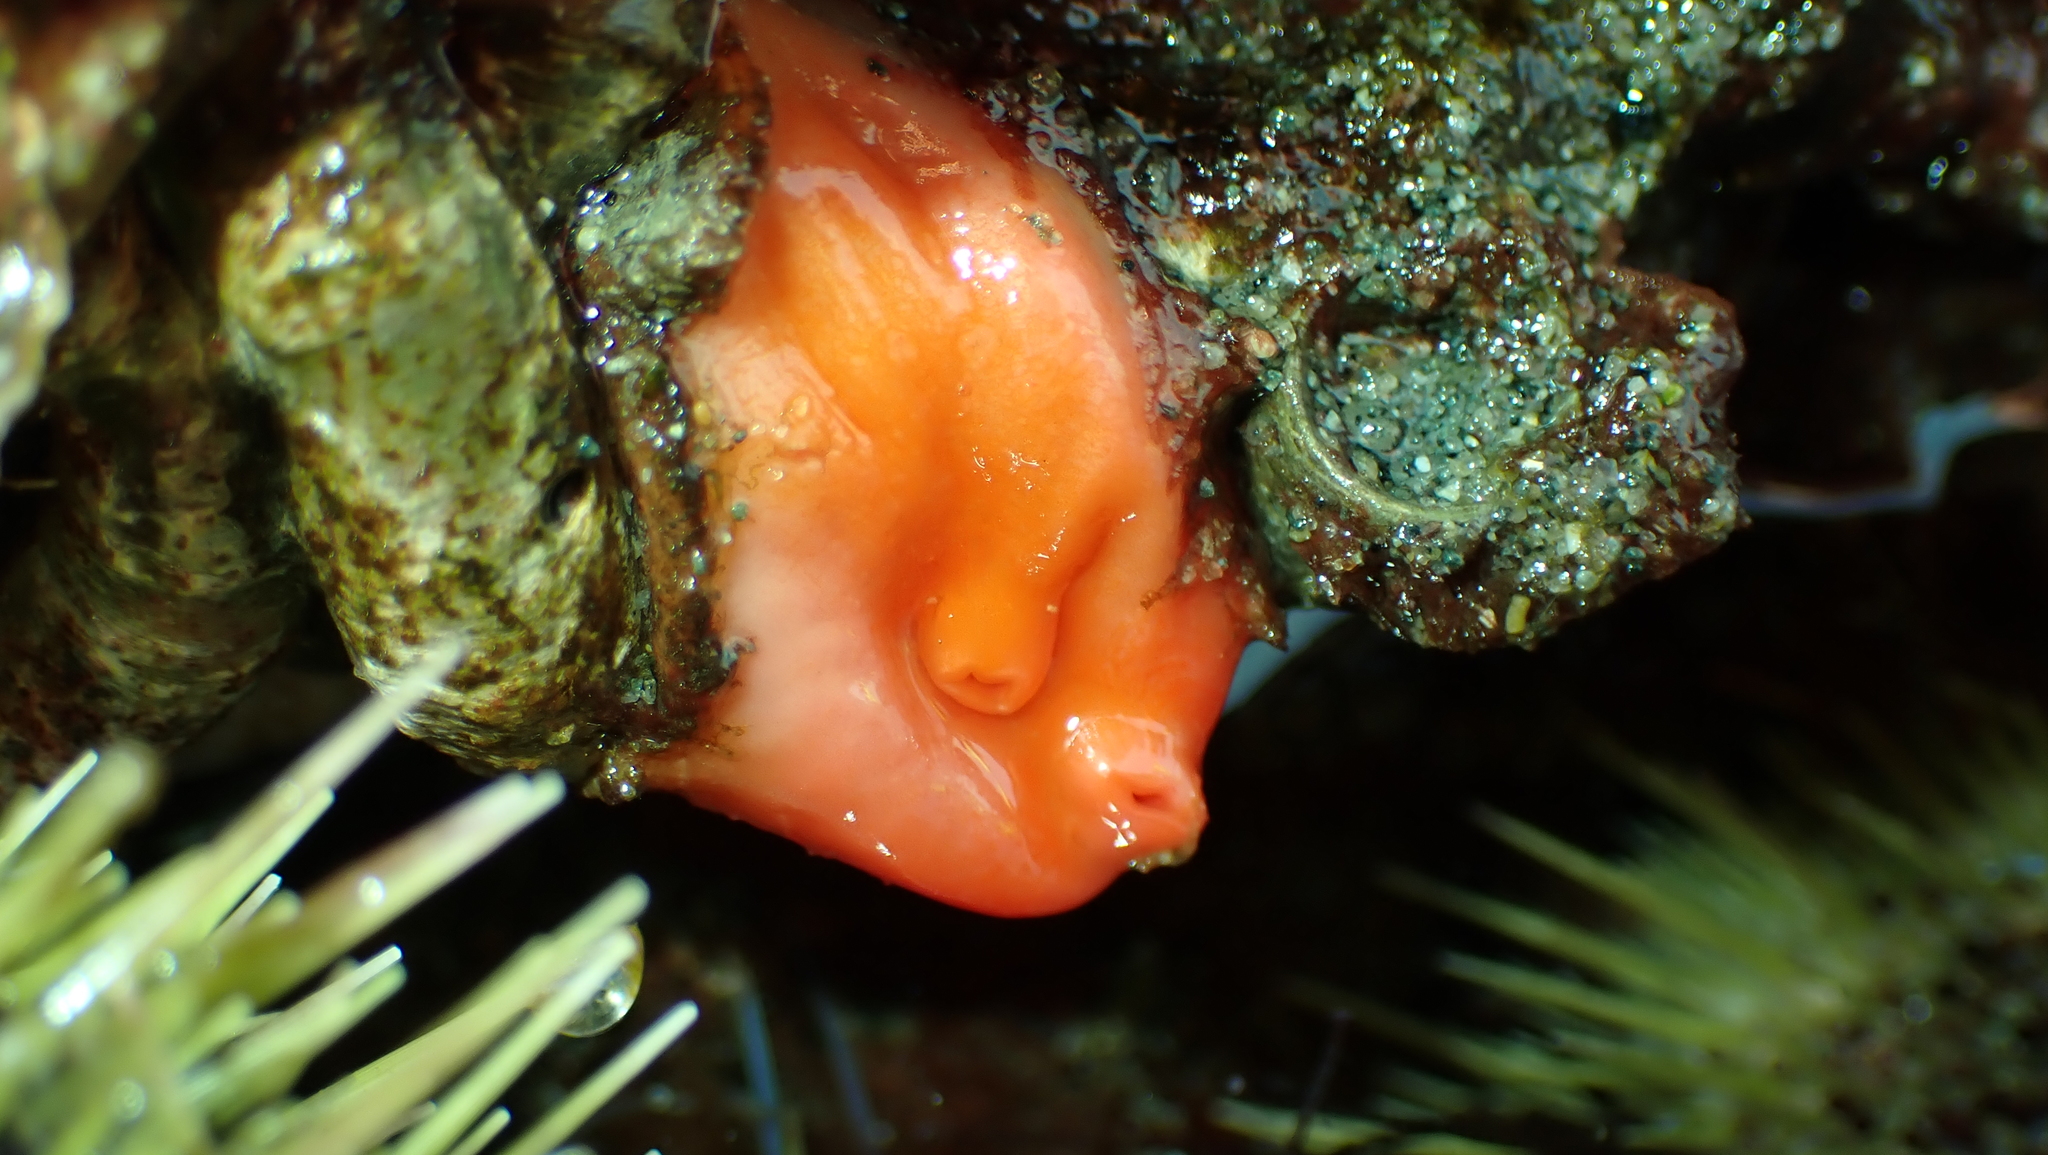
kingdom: Animalia
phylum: Chordata
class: Ascidiacea
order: Stolidobranchia
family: Styelidae
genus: Cnemidocarpa
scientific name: Cnemidocarpa finmarkiensis
